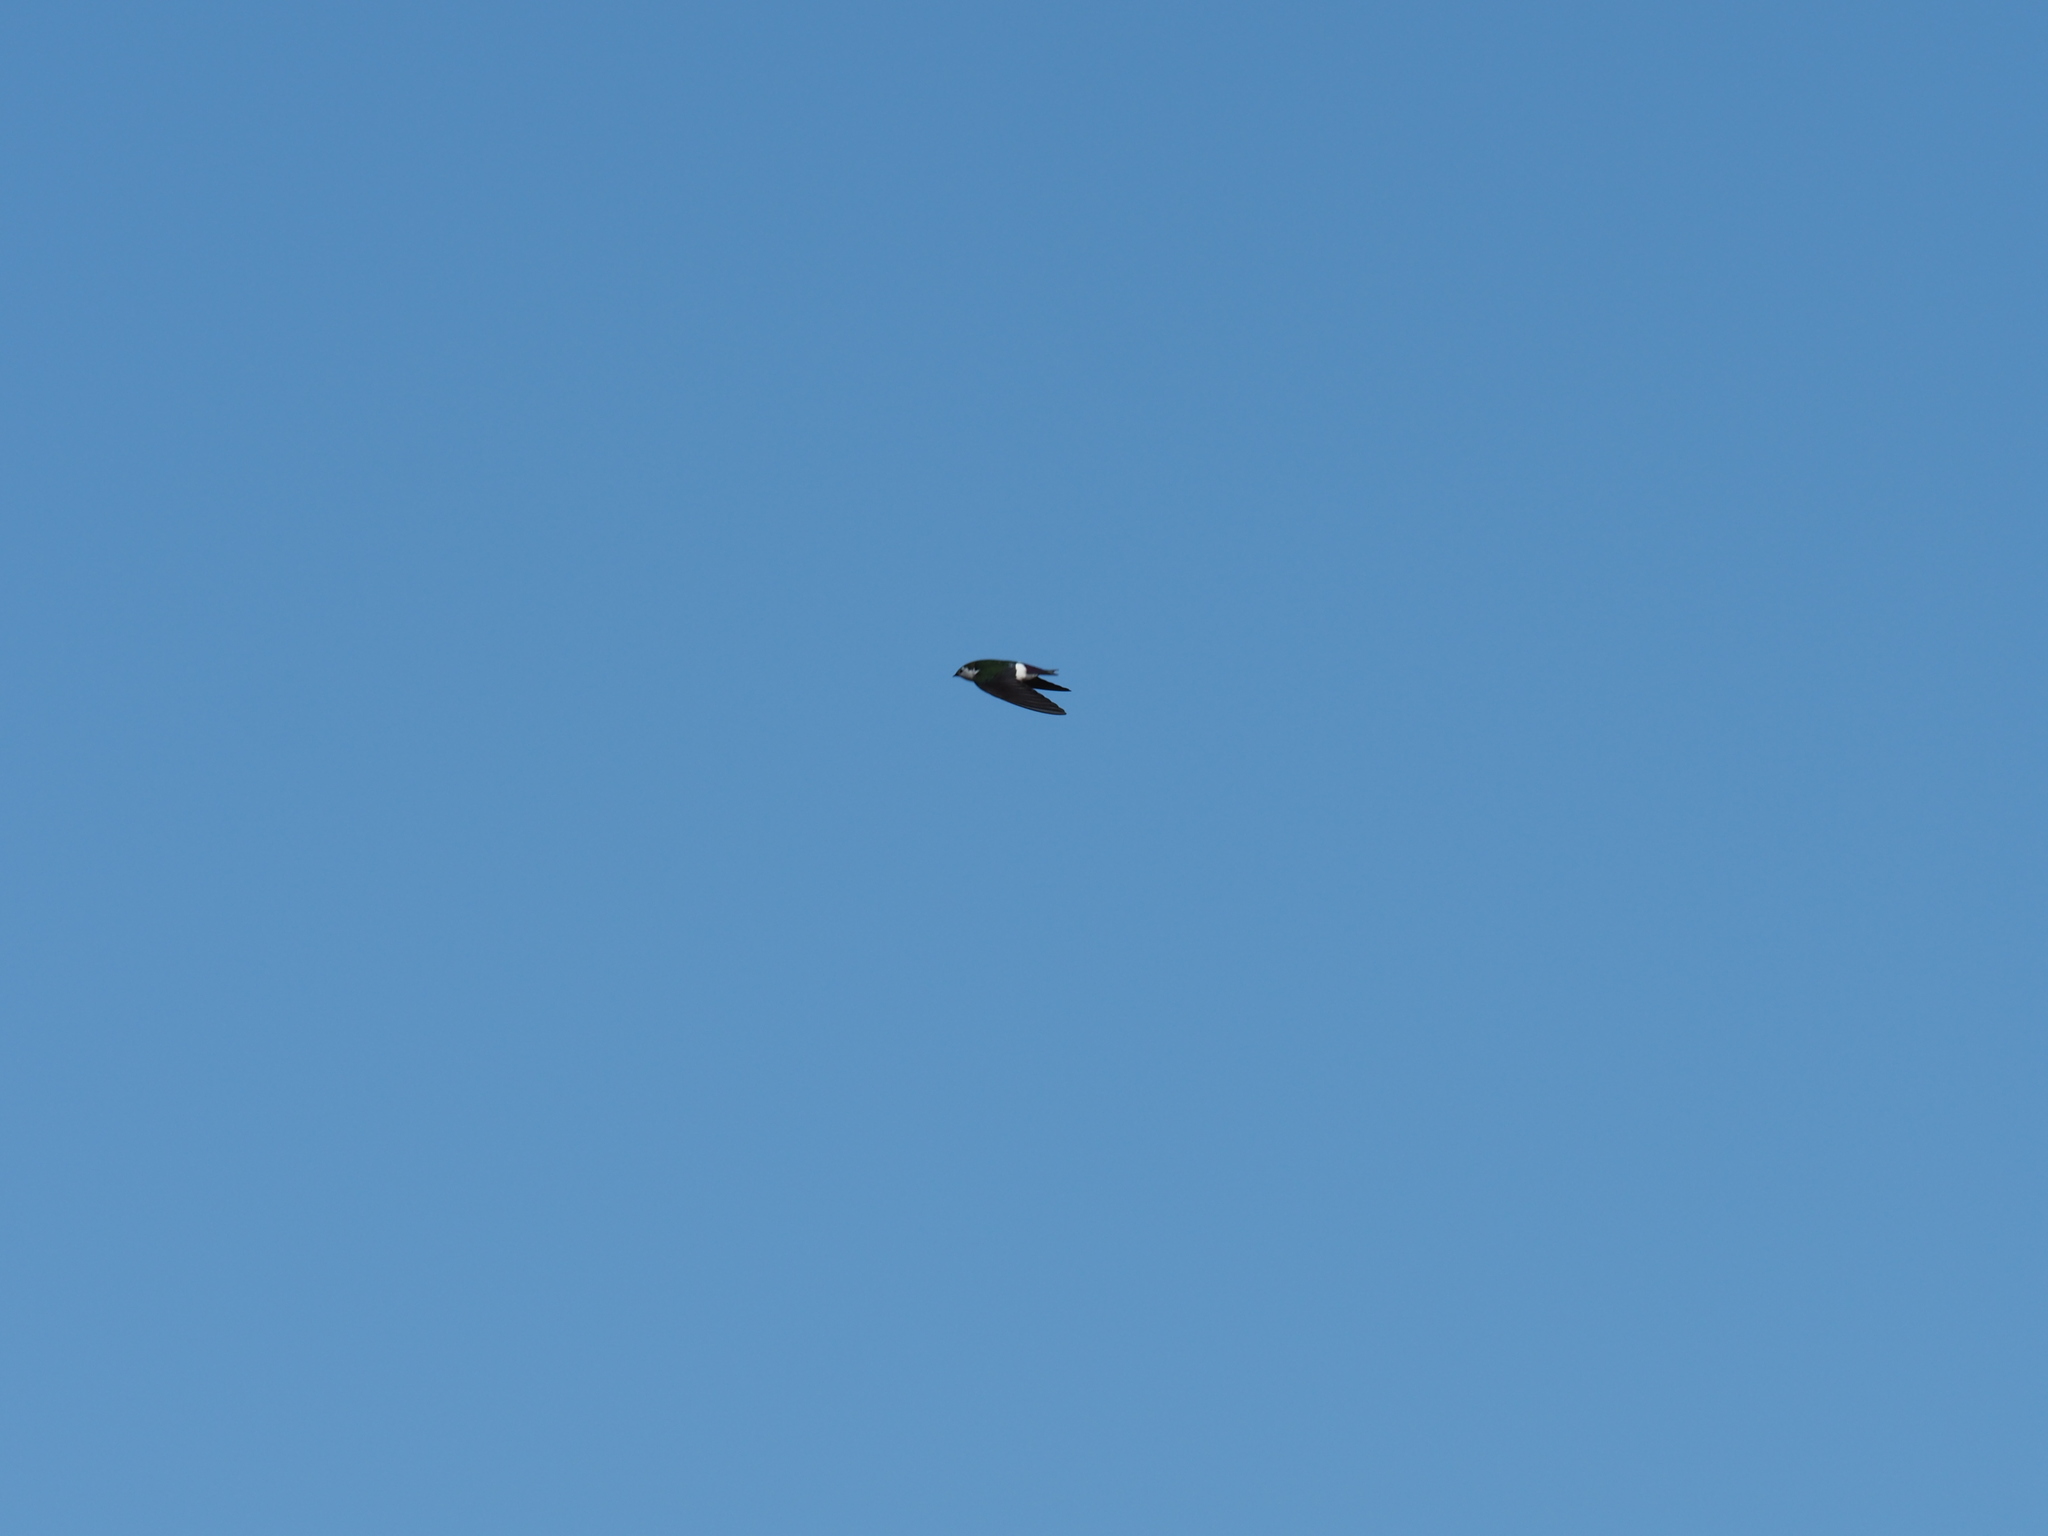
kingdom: Animalia
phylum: Chordata
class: Aves
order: Passeriformes
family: Hirundinidae
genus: Tachycineta
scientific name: Tachycineta thalassina
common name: Violet-green swallow
